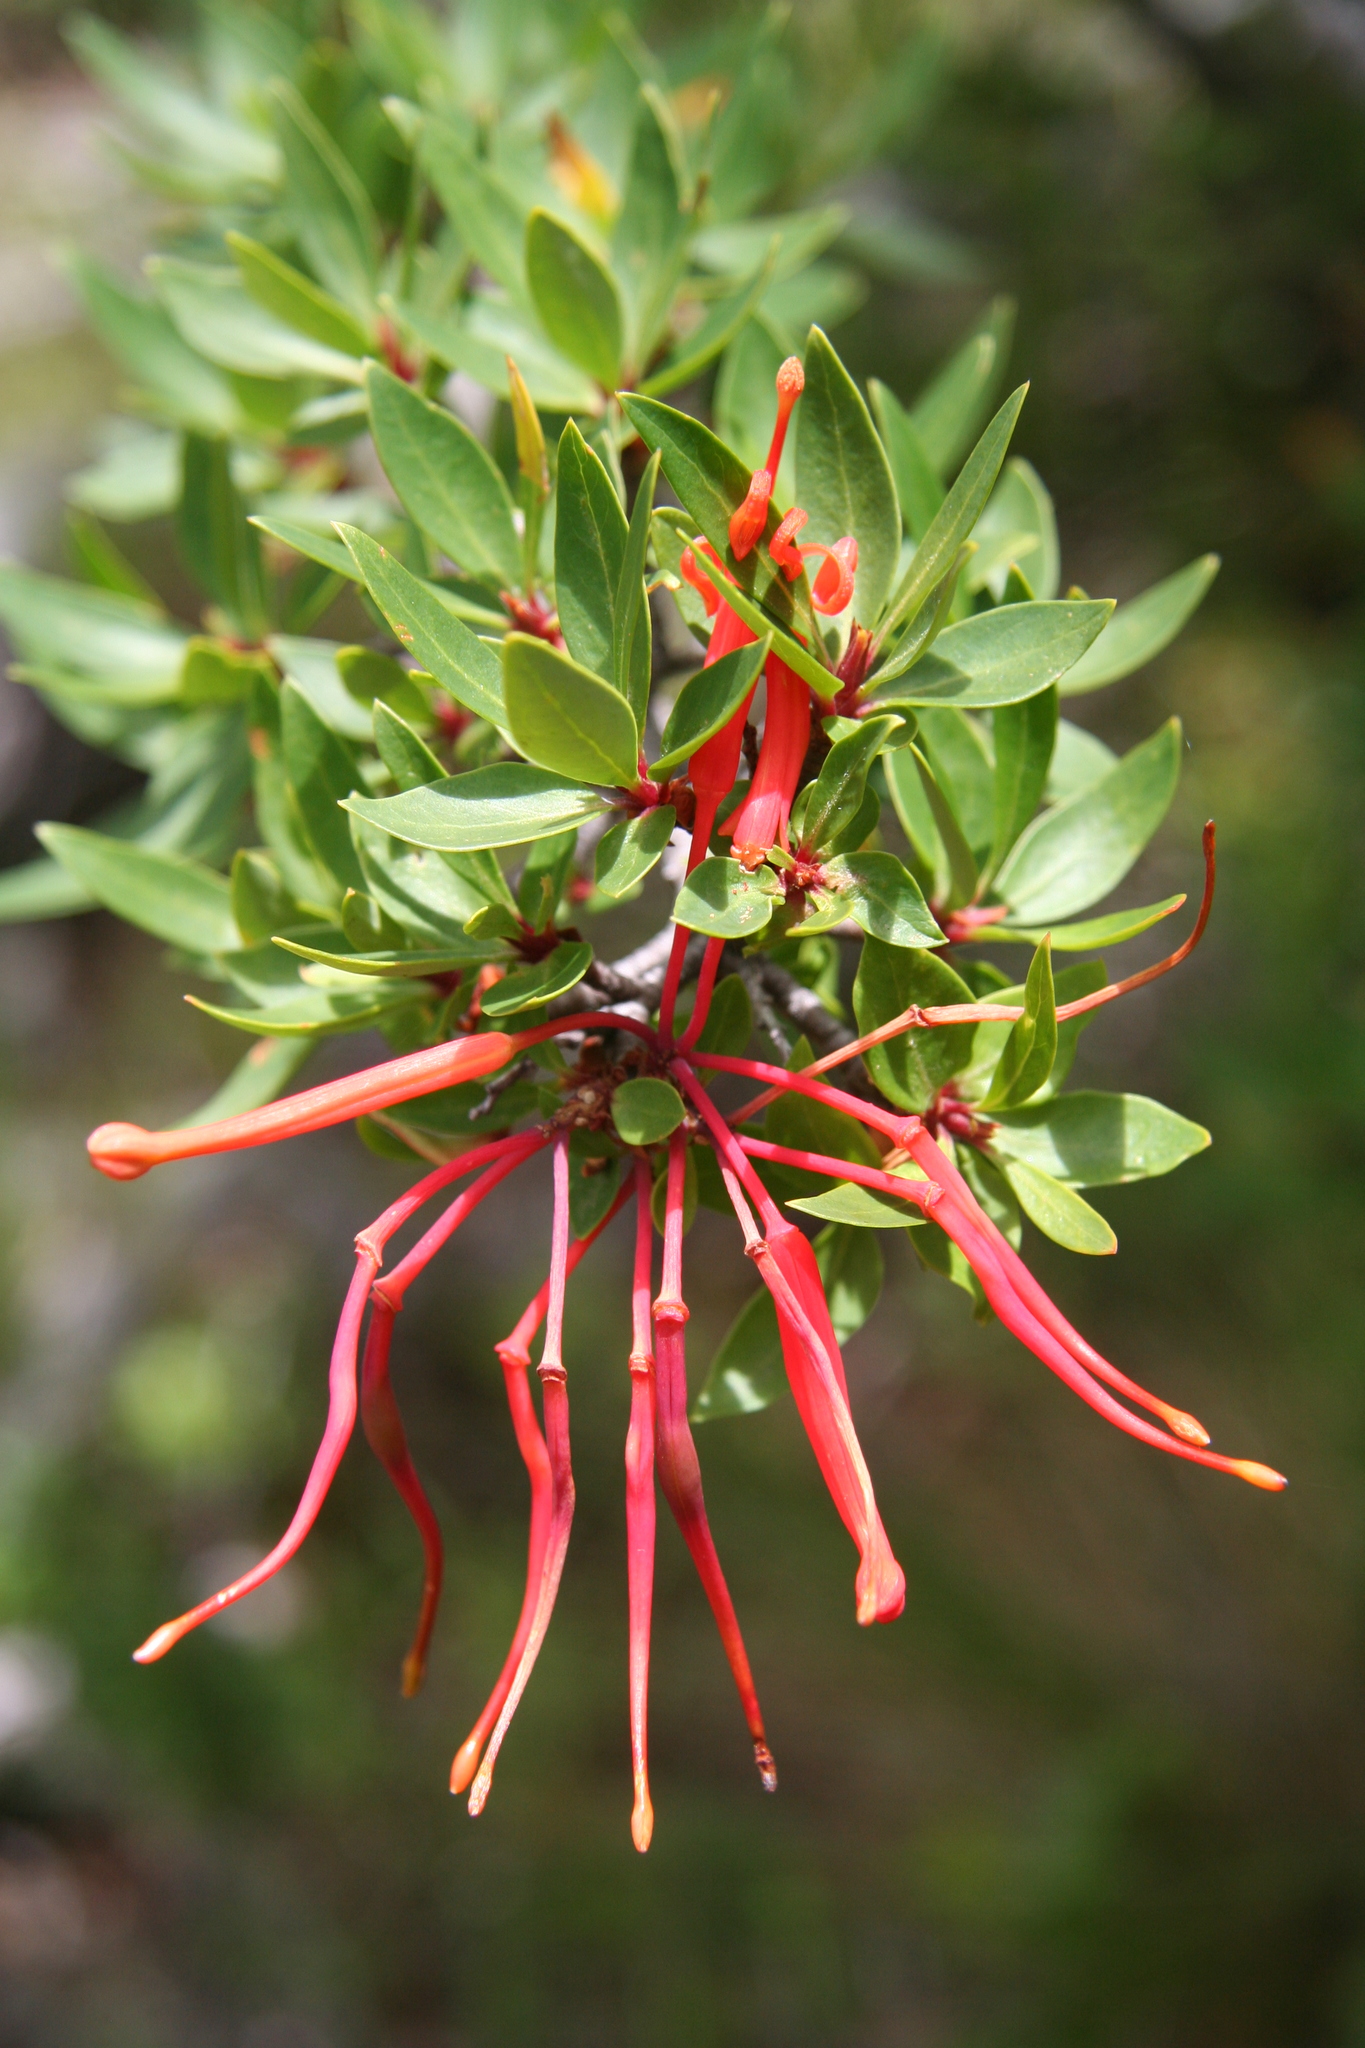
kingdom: Plantae
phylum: Tracheophyta
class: Magnoliopsida
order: Proteales
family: Proteaceae
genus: Embothrium
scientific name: Embothrium coccineum
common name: Chilean firebush
